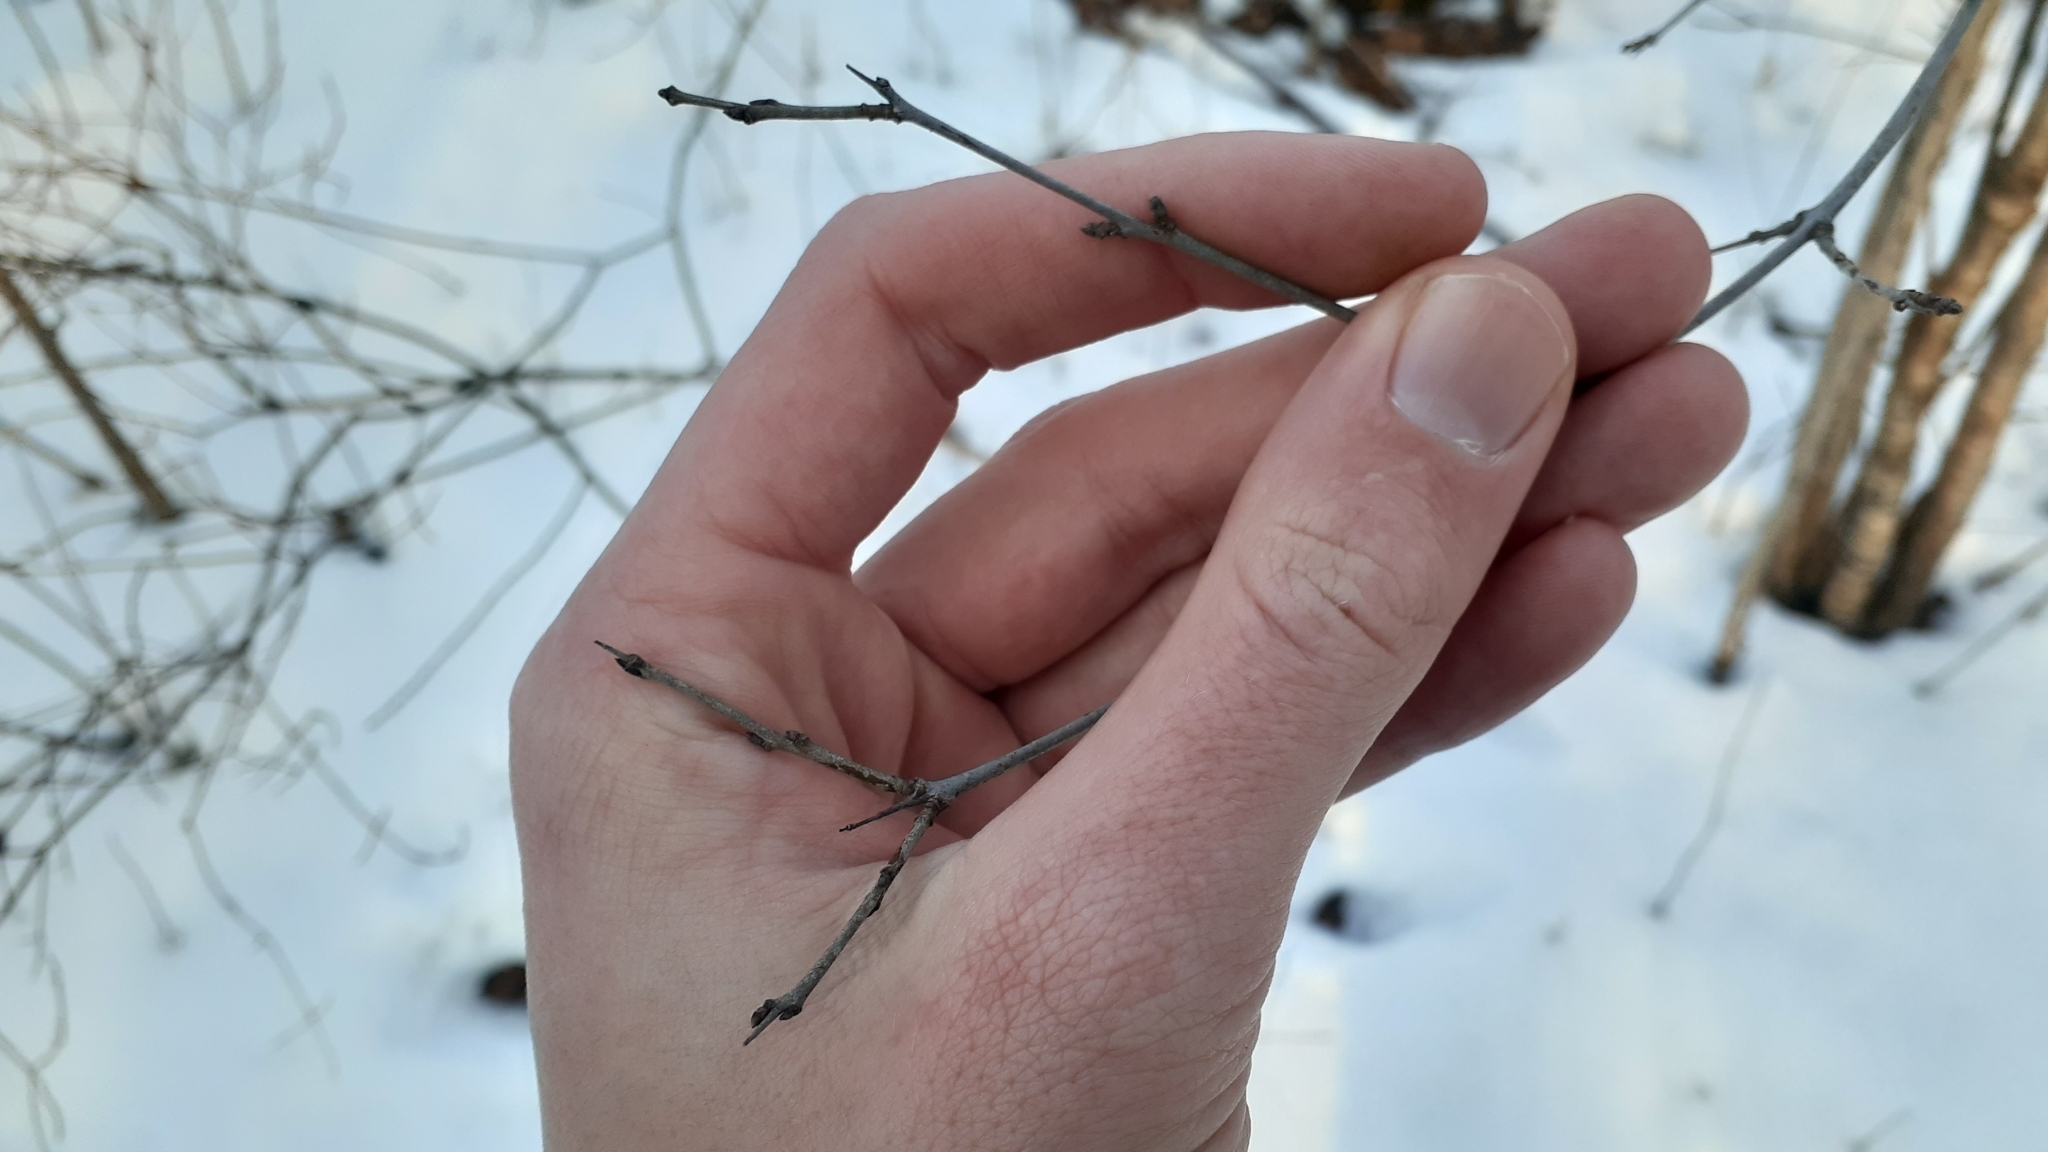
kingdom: Plantae
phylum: Tracheophyta
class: Magnoliopsida
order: Rosales
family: Rhamnaceae
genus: Rhamnus
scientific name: Rhamnus cathartica
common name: Common buckthorn
